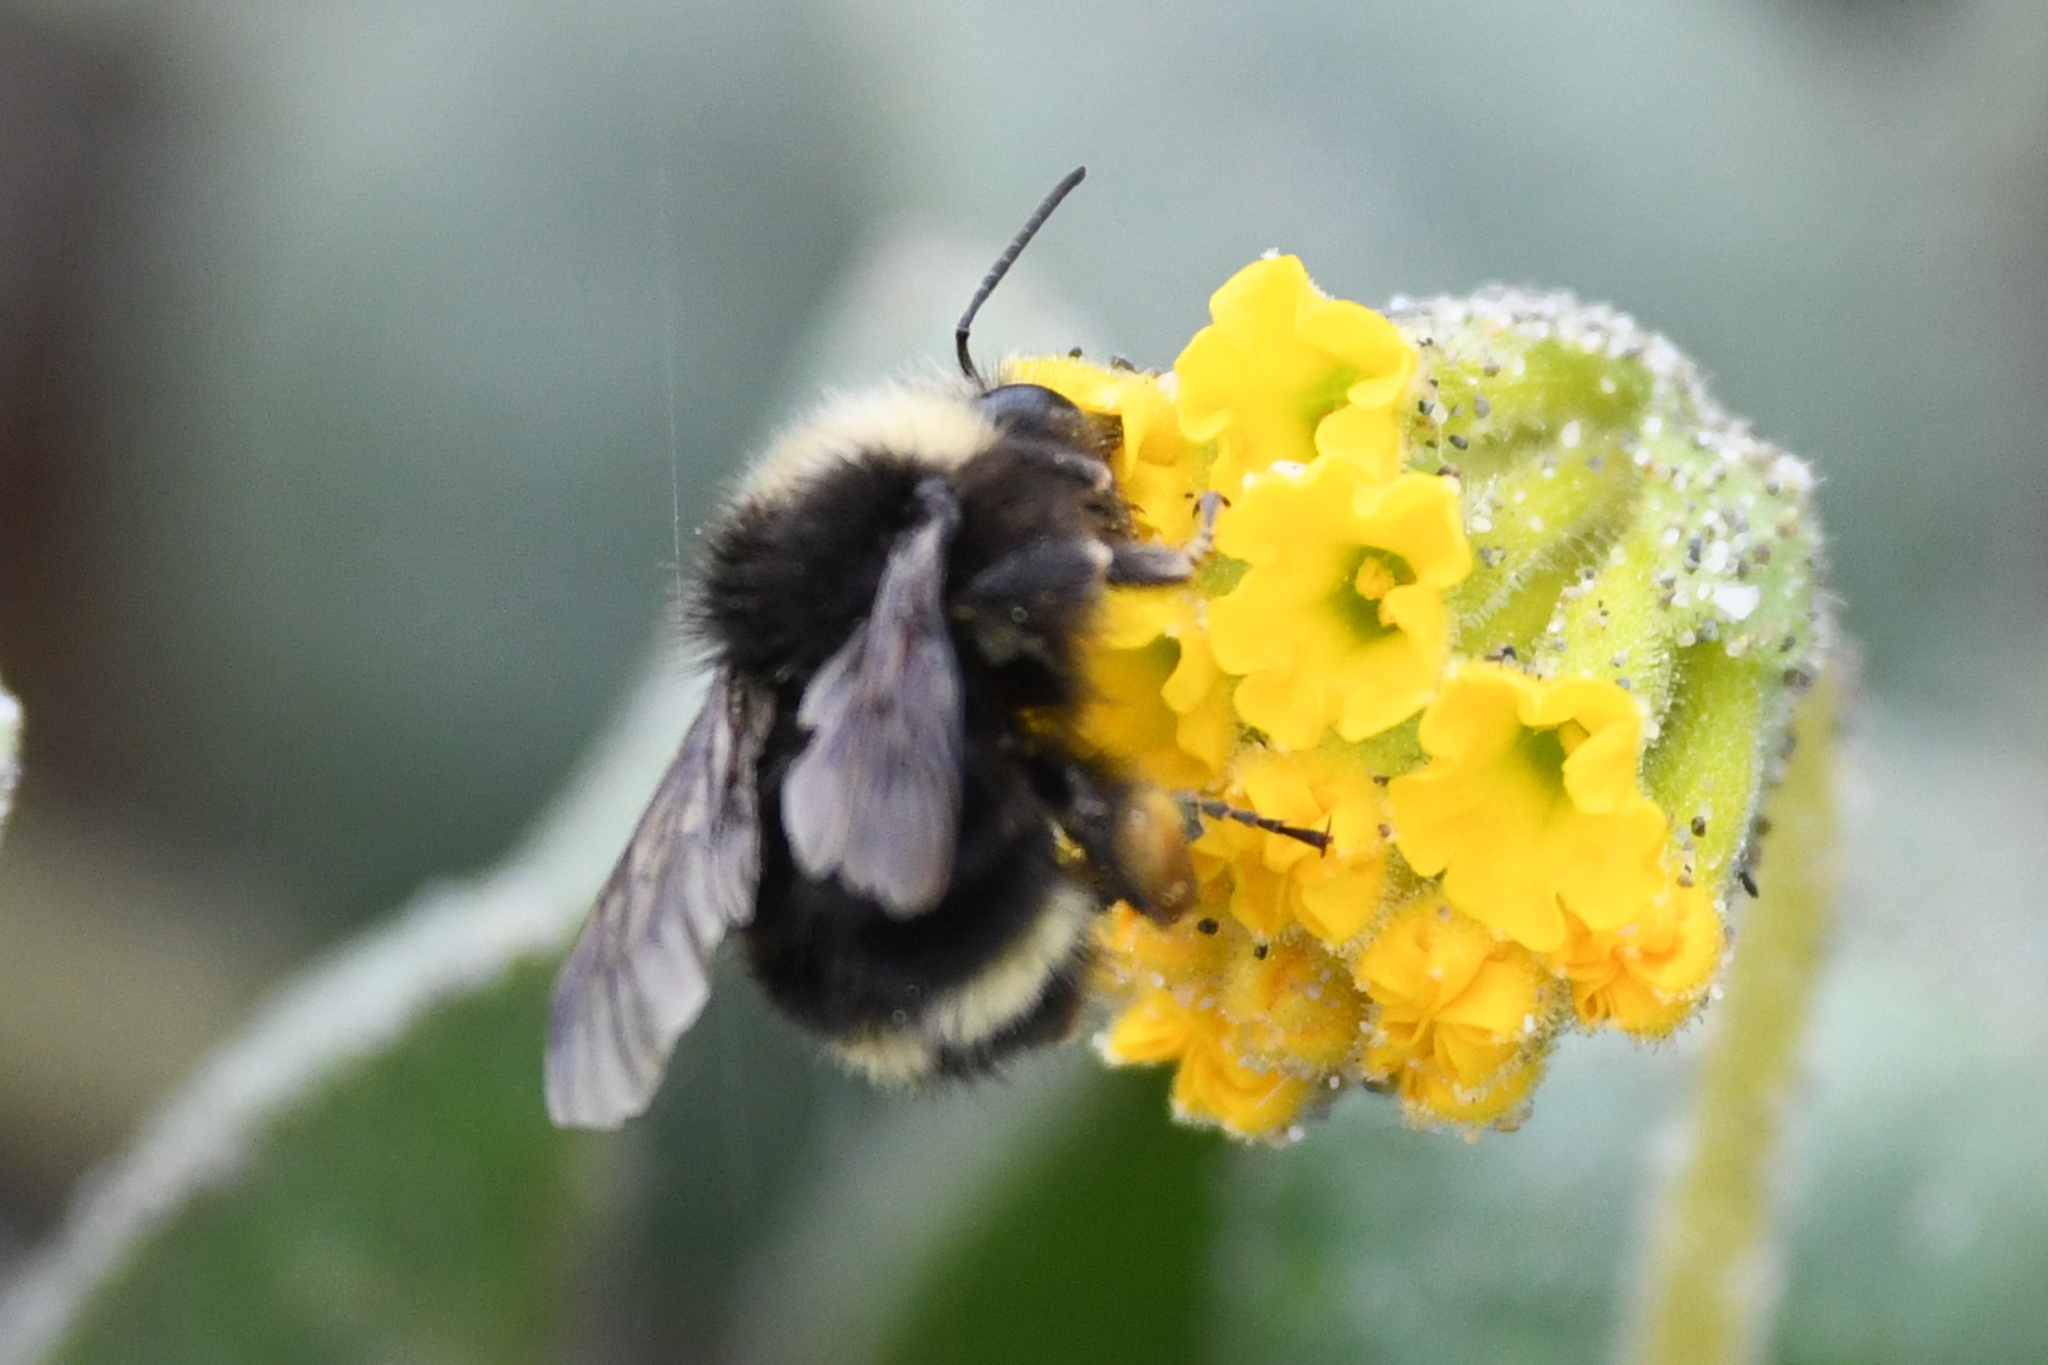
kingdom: Animalia
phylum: Arthropoda
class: Insecta
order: Hymenoptera
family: Apidae
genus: Bombus
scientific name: Bombus vosnesenskii
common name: Vosnesensky bumble bee
